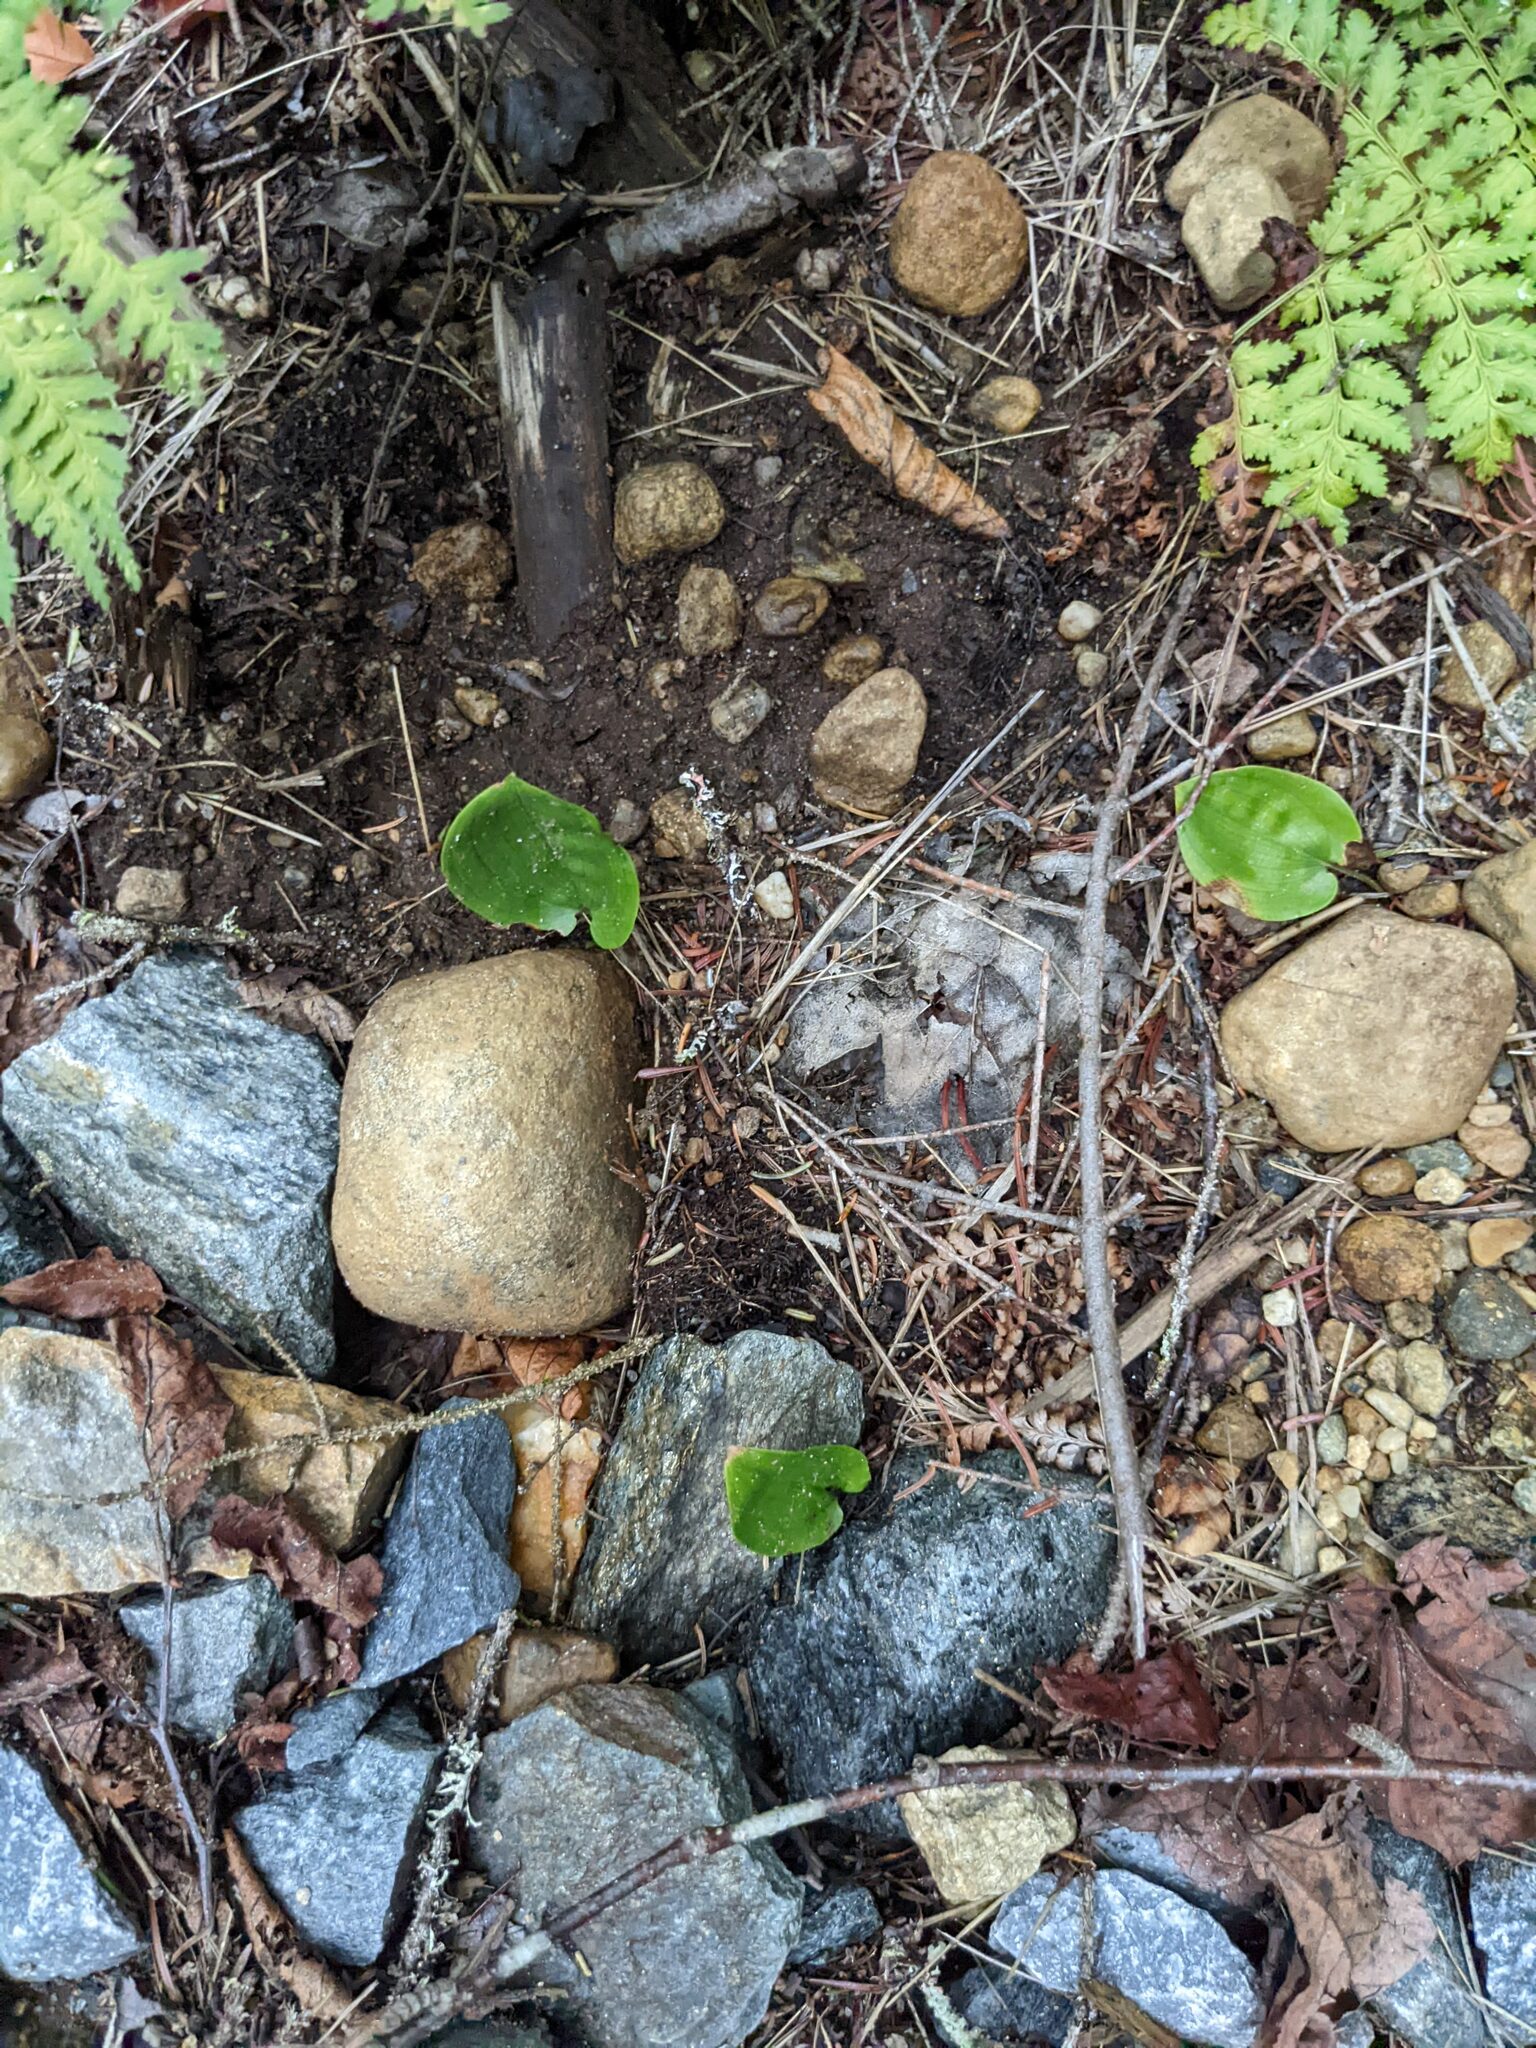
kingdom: Plantae
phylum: Tracheophyta
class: Liliopsida
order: Asparagales
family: Asparagaceae
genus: Maianthemum
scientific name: Maianthemum canadense
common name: False lily-of-the-valley
